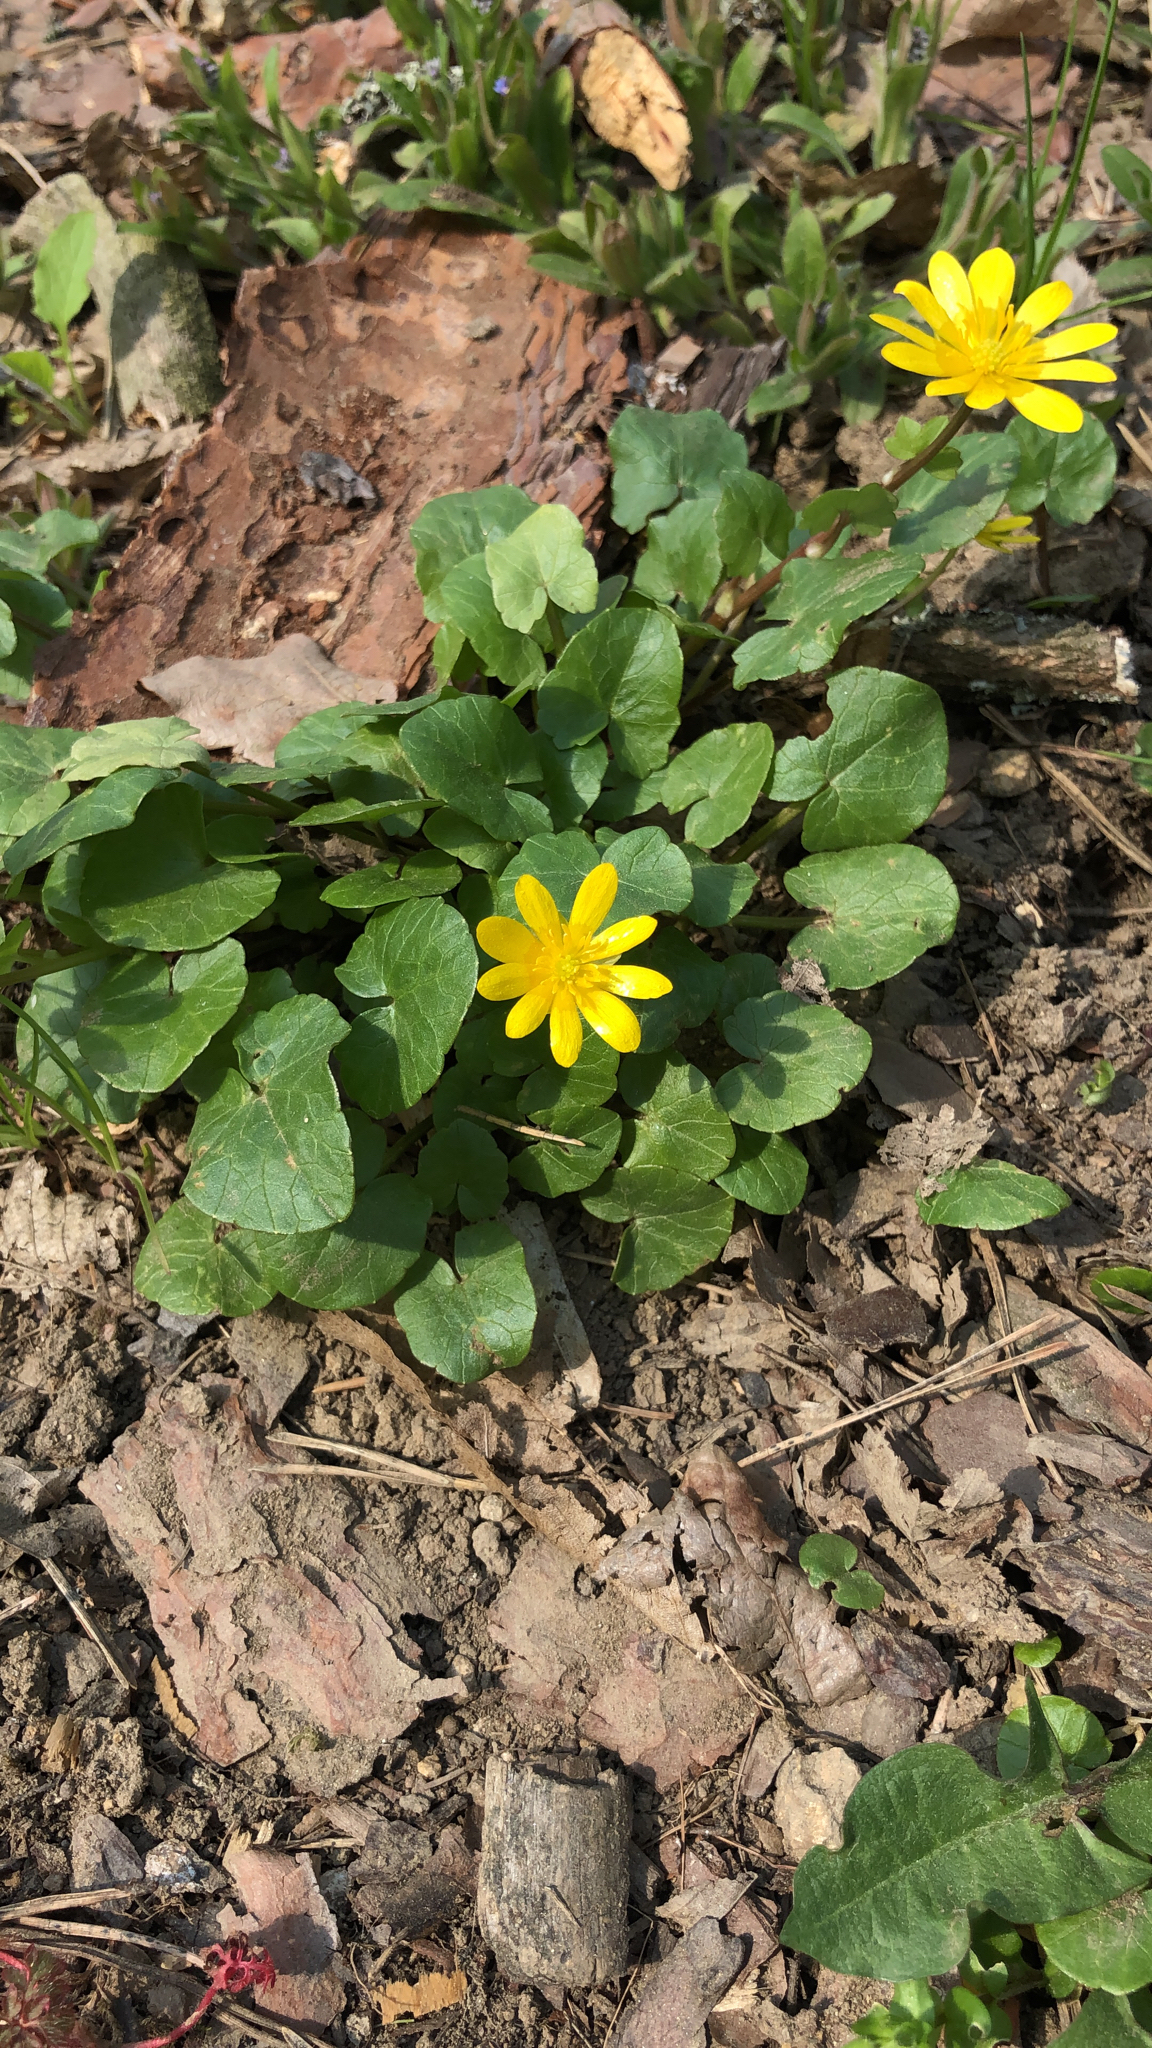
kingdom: Plantae
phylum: Tracheophyta
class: Magnoliopsida
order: Ranunculales
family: Ranunculaceae
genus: Ficaria
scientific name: Ficaria verna
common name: Lesser celandine
